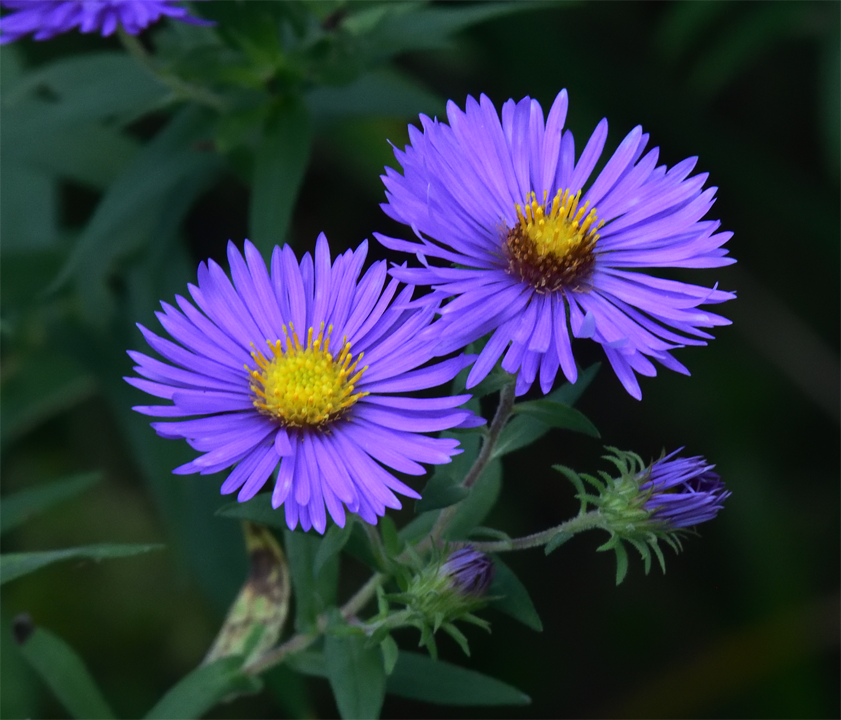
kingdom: Plantae
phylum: Tracheophyta
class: Magnoliopsida
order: Asterales
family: Asteraceae
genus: Symphyotrichum
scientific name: Symphyotrichum novae-angliae
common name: Michaelmas daisy
